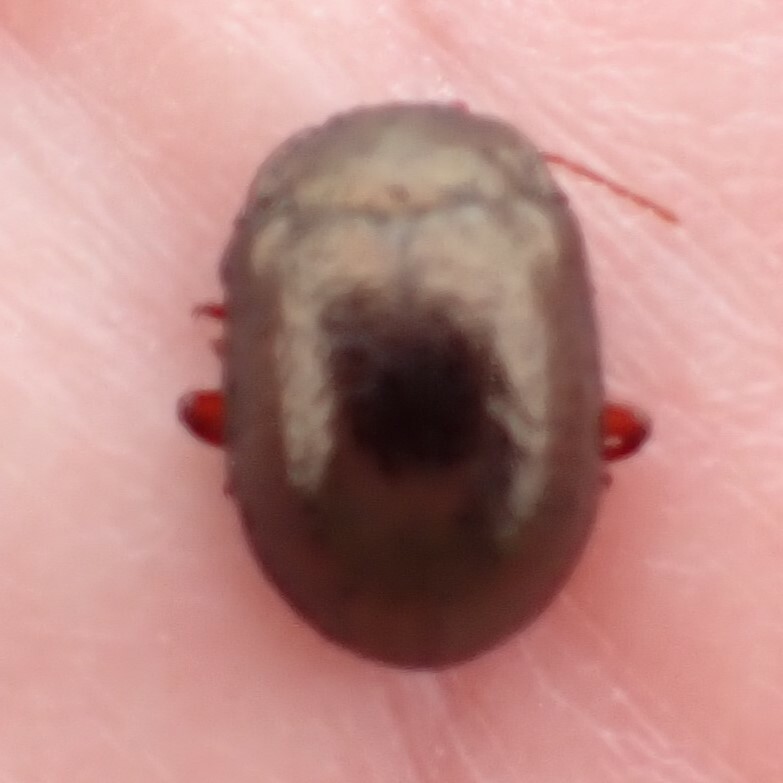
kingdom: Animalia
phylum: Arthropoda
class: Insecta
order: Coleoptera
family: Chrysomelidae
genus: Chrysolina
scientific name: Chrysolina bankii
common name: Leaf beetle
